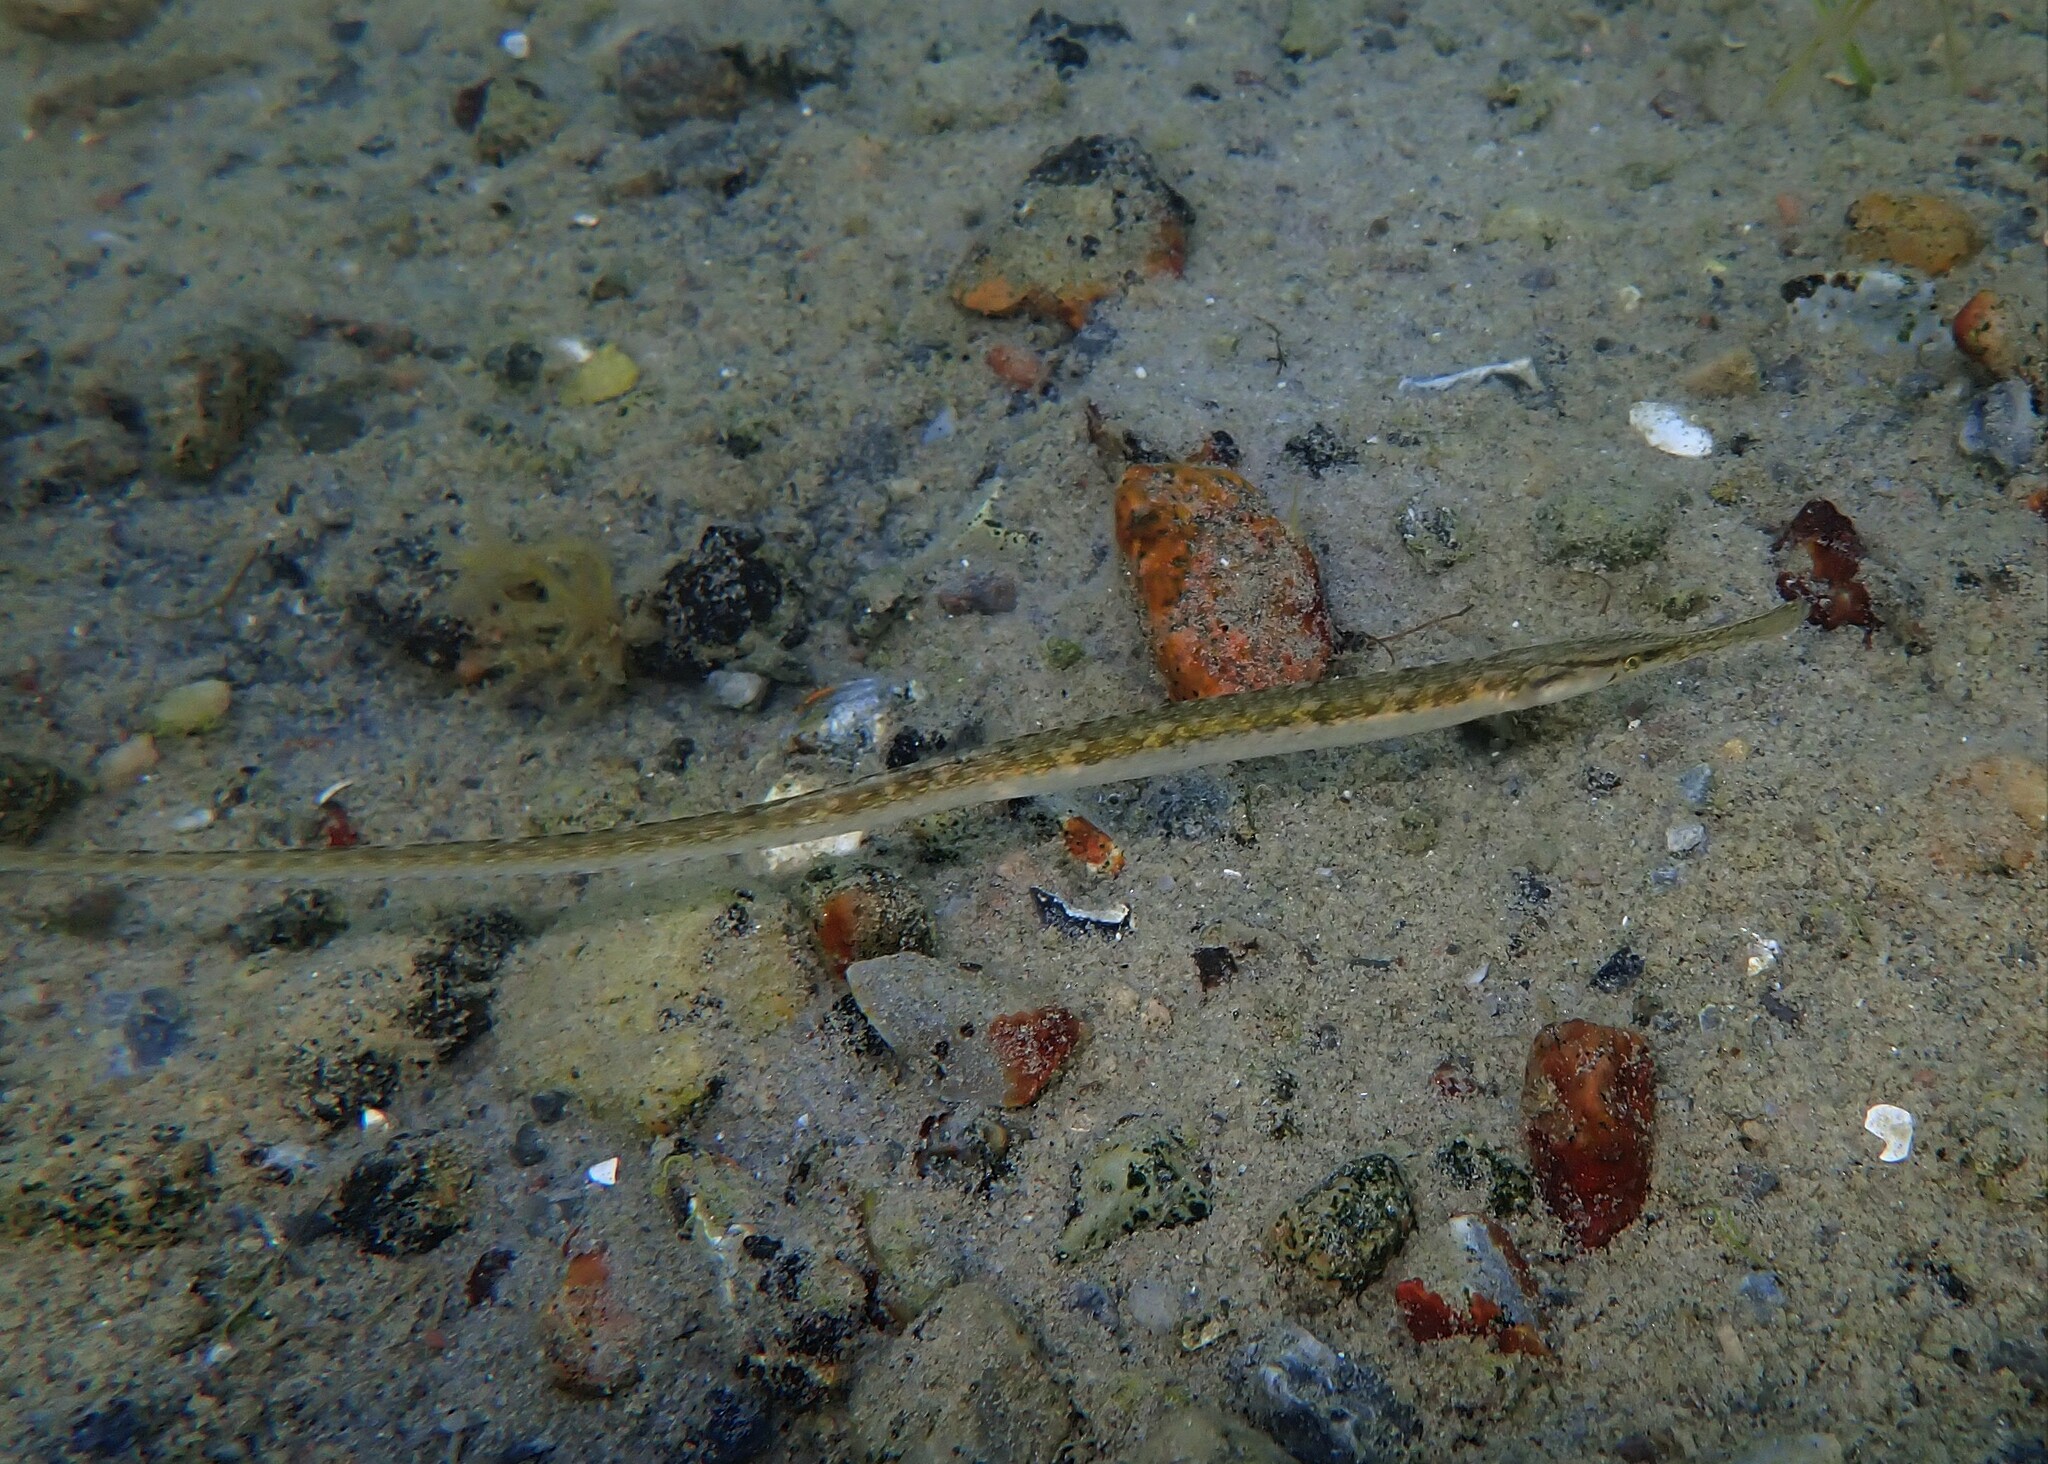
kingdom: Animalia
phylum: Chordata
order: Syngnathiformes
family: Syngnathidae
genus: Syngnathus
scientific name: Syngnathus typhle
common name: Deep-snouted pipefish
